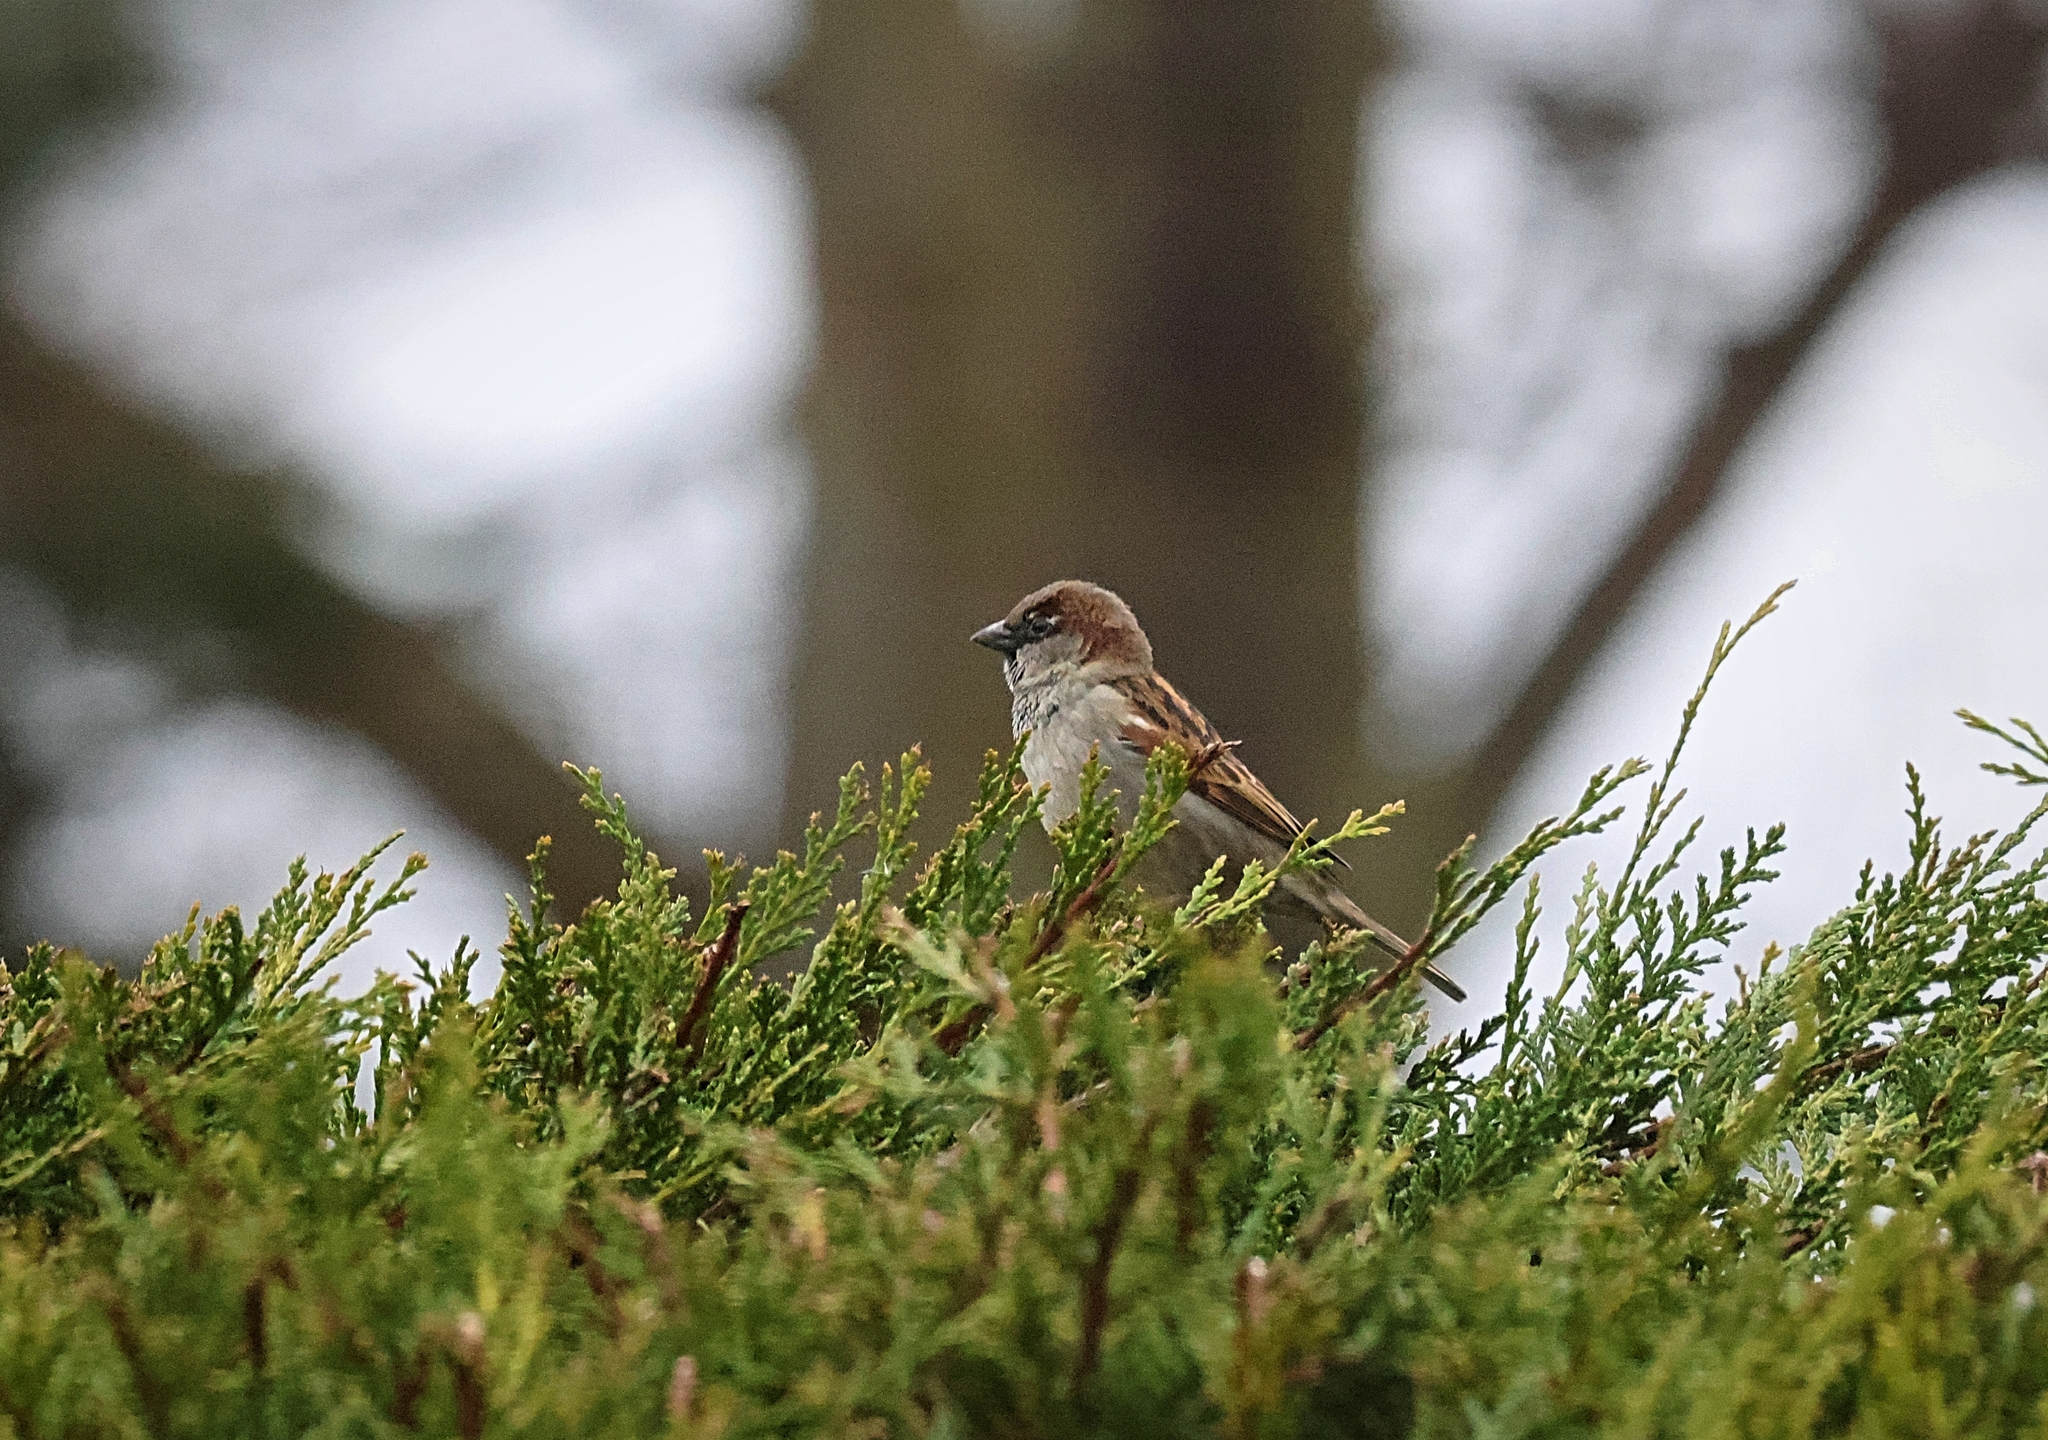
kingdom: Animalia
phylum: Chordata
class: Aves
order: Passeriformes
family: Passeridae
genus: Passer
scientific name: Passer domesticus
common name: House sparrow
